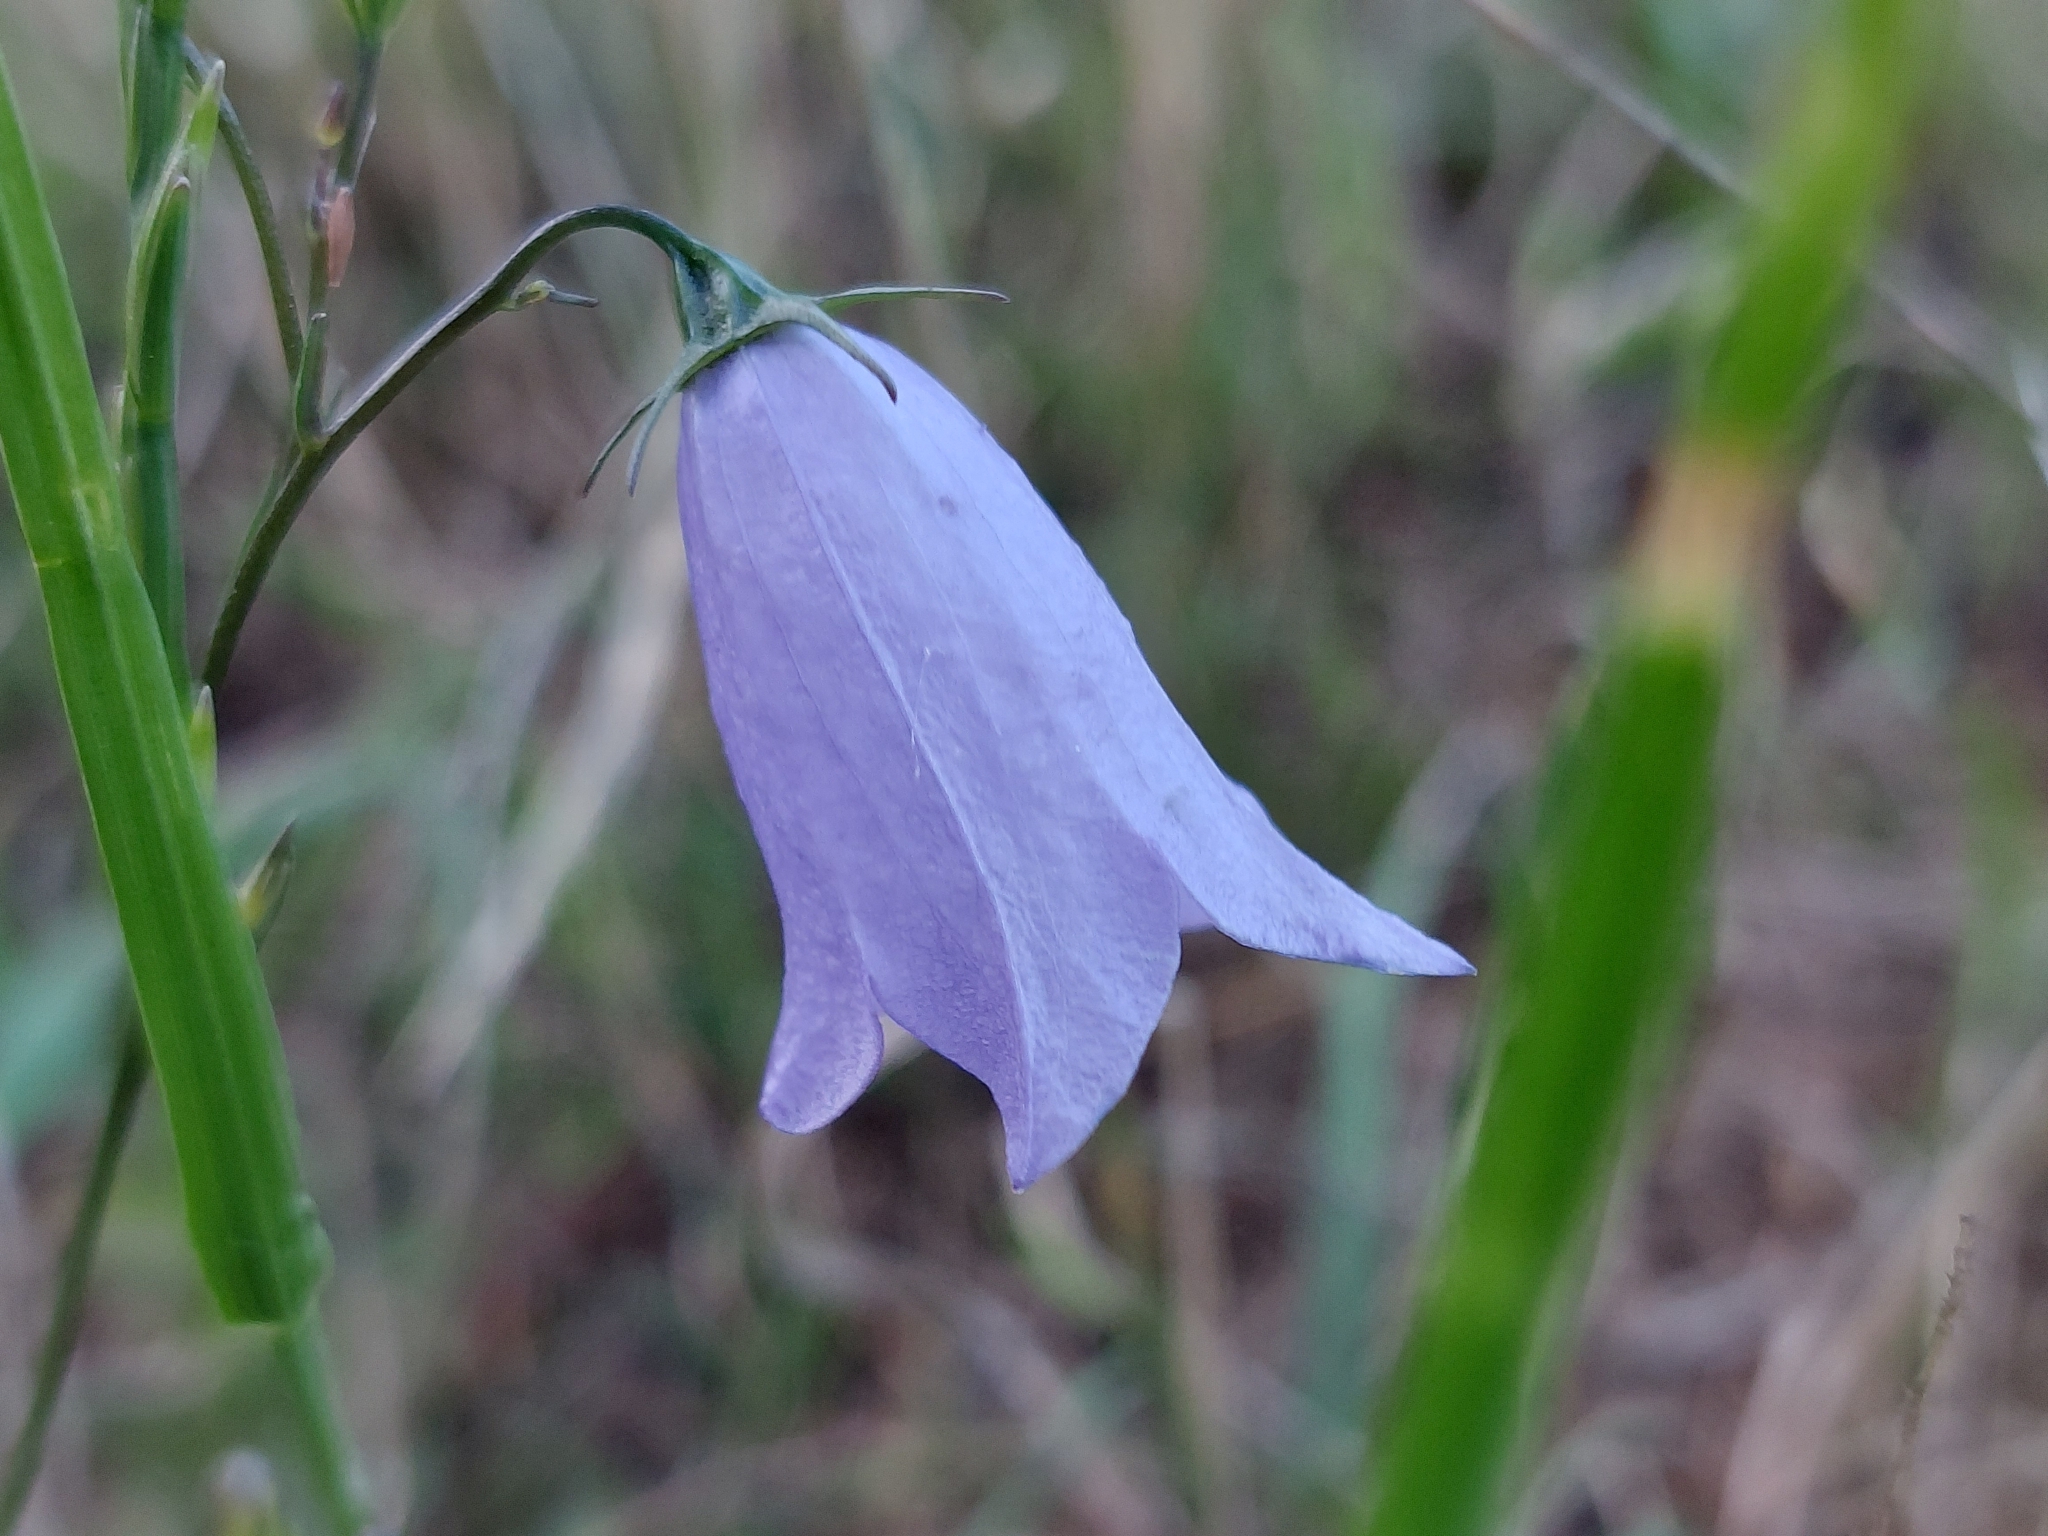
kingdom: Plantae
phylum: Tracheophyta
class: Magnoliopsida
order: Asterales
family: Campanulaceae
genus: Campanula
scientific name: Campanula rotundifolia
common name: Harebell
